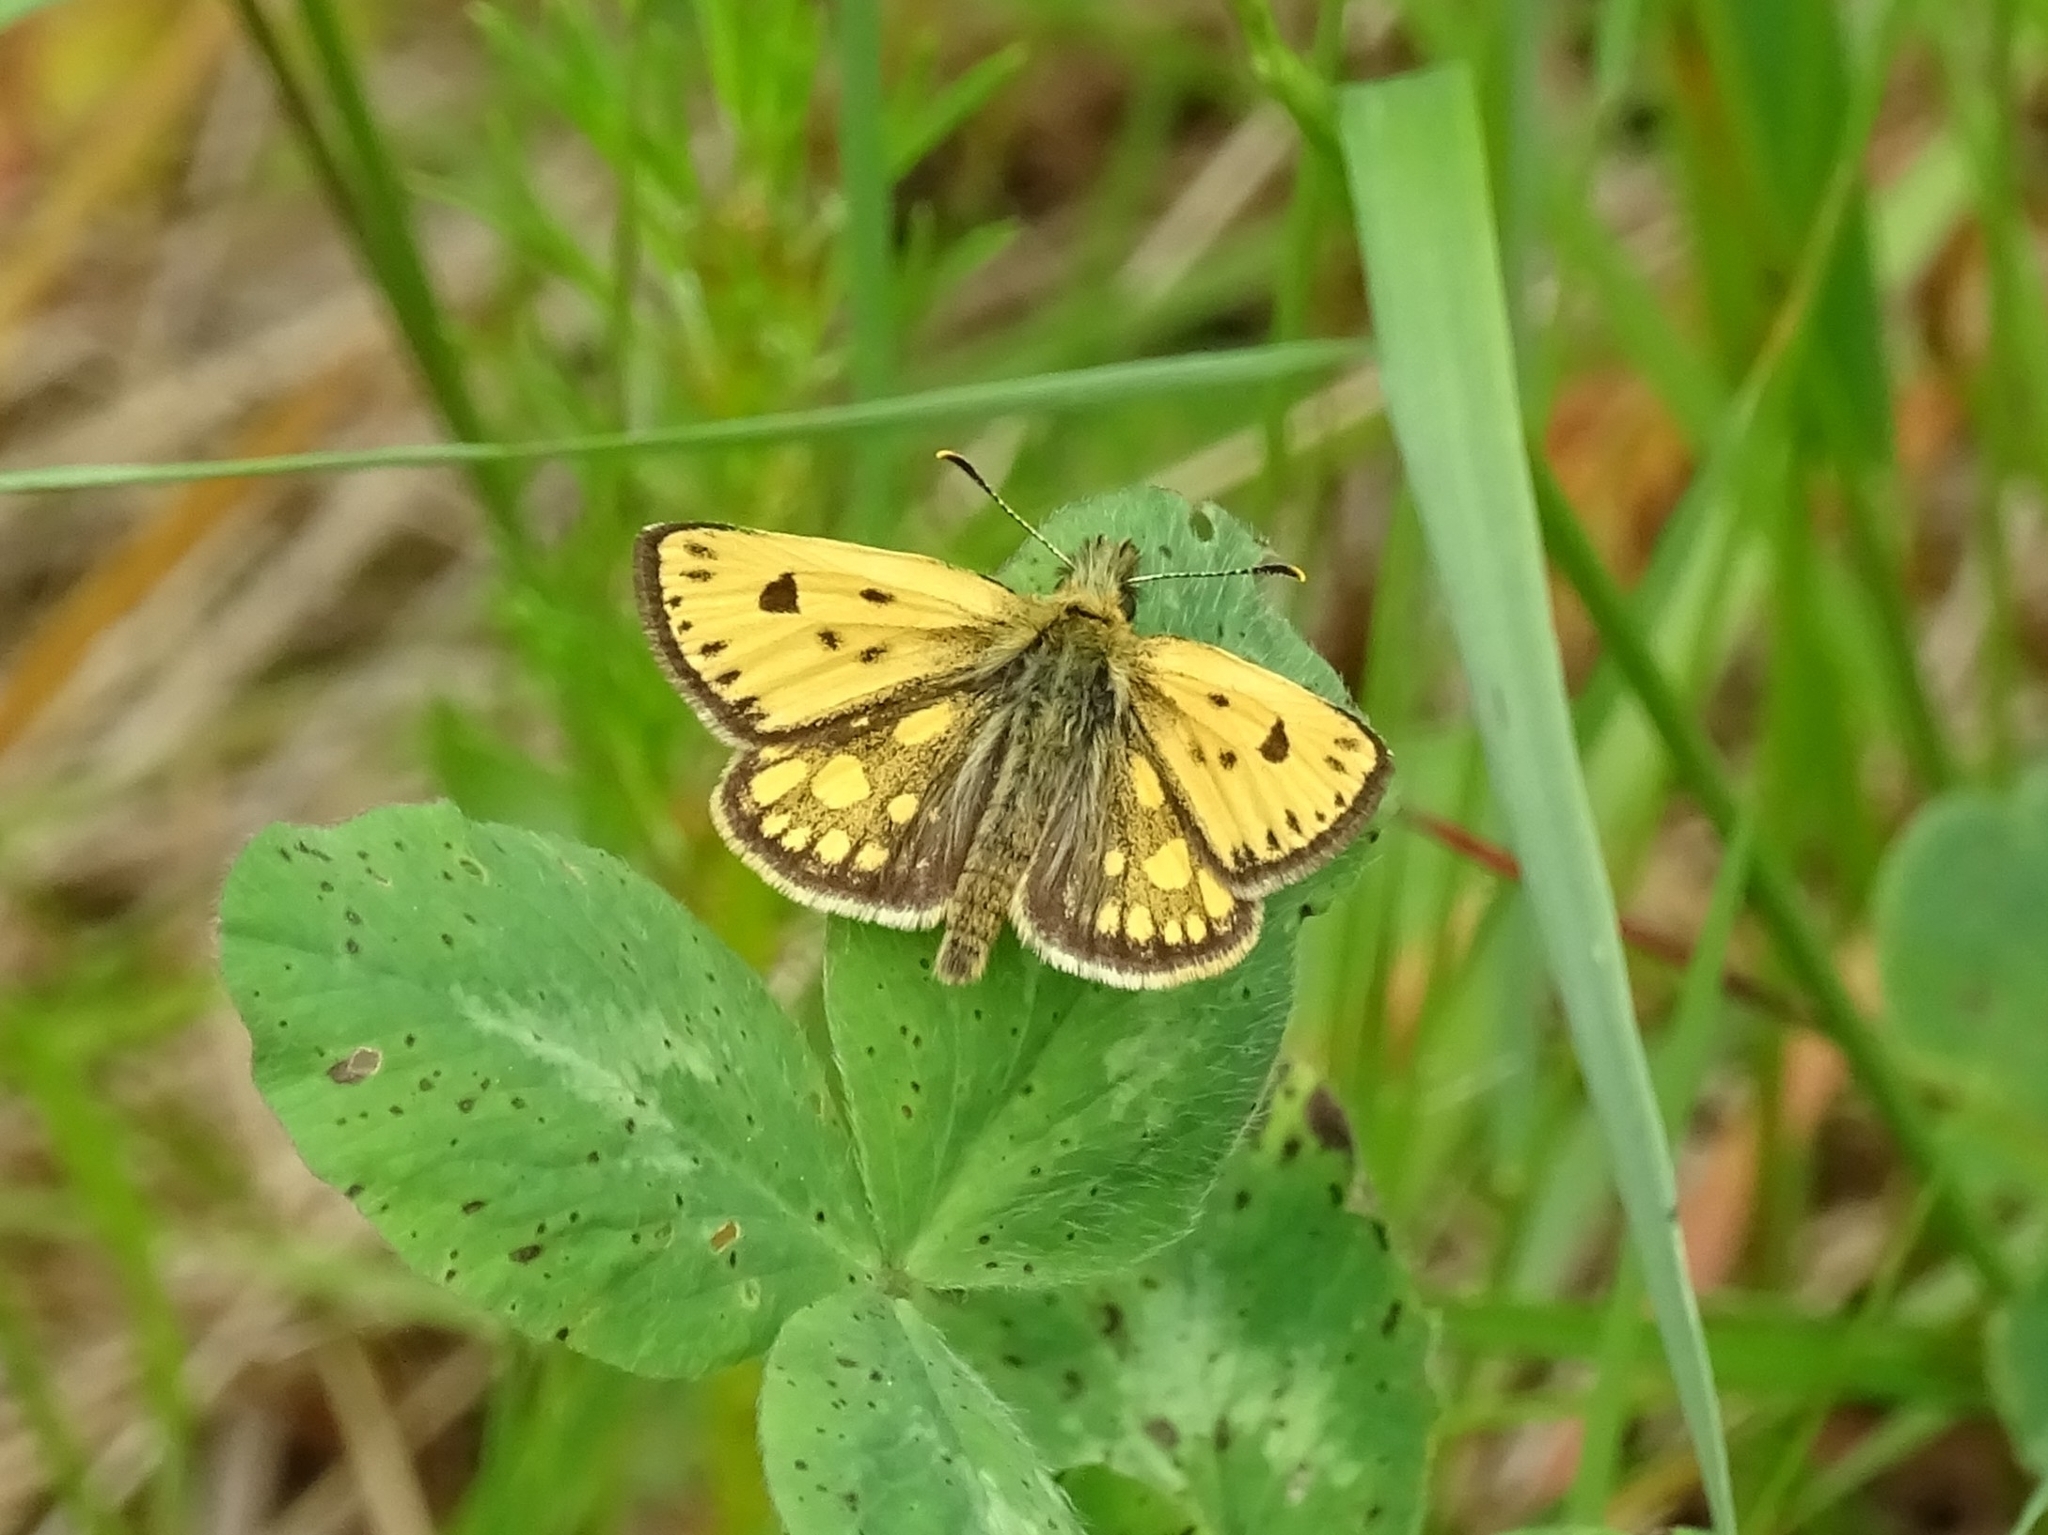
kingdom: Animalia
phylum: Arthropoda
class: Insecta
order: Lepidoptera
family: Hesperiidae
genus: Carterocephalus
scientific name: Carterocephalus silvicola
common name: Northern chequered skipper
